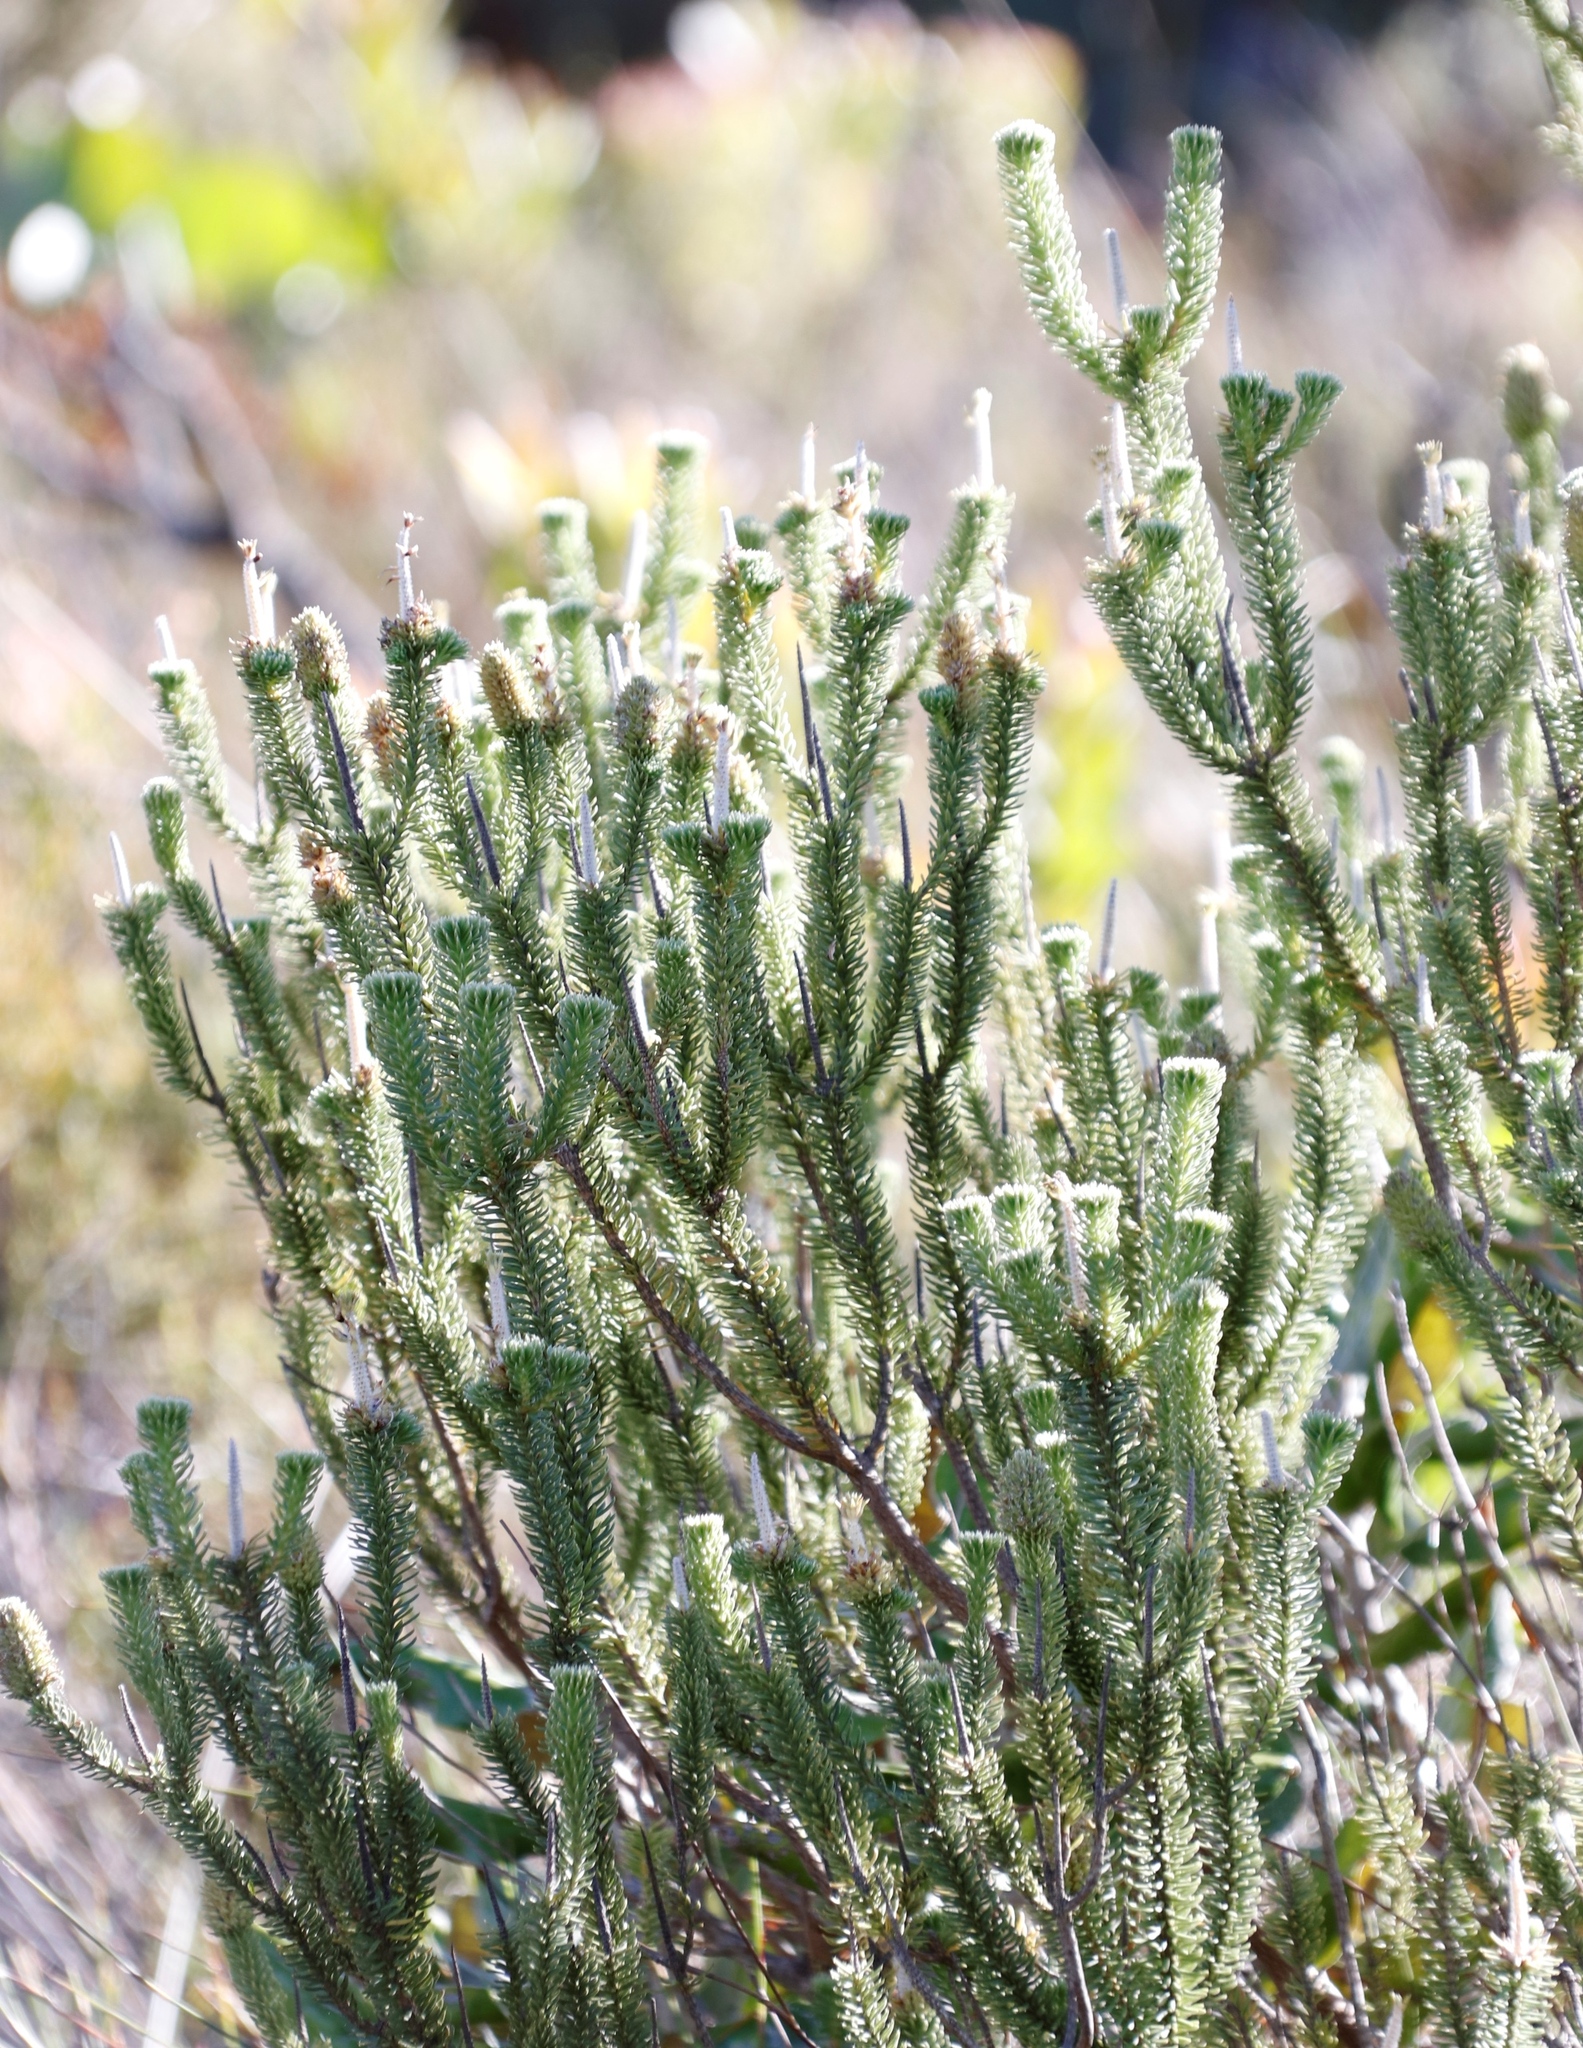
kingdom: Plantae
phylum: Tracheophyta
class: Magnoliopsida
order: Lamiales
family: Stilbaceae
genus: Stilbe
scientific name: Stilbe vestita
